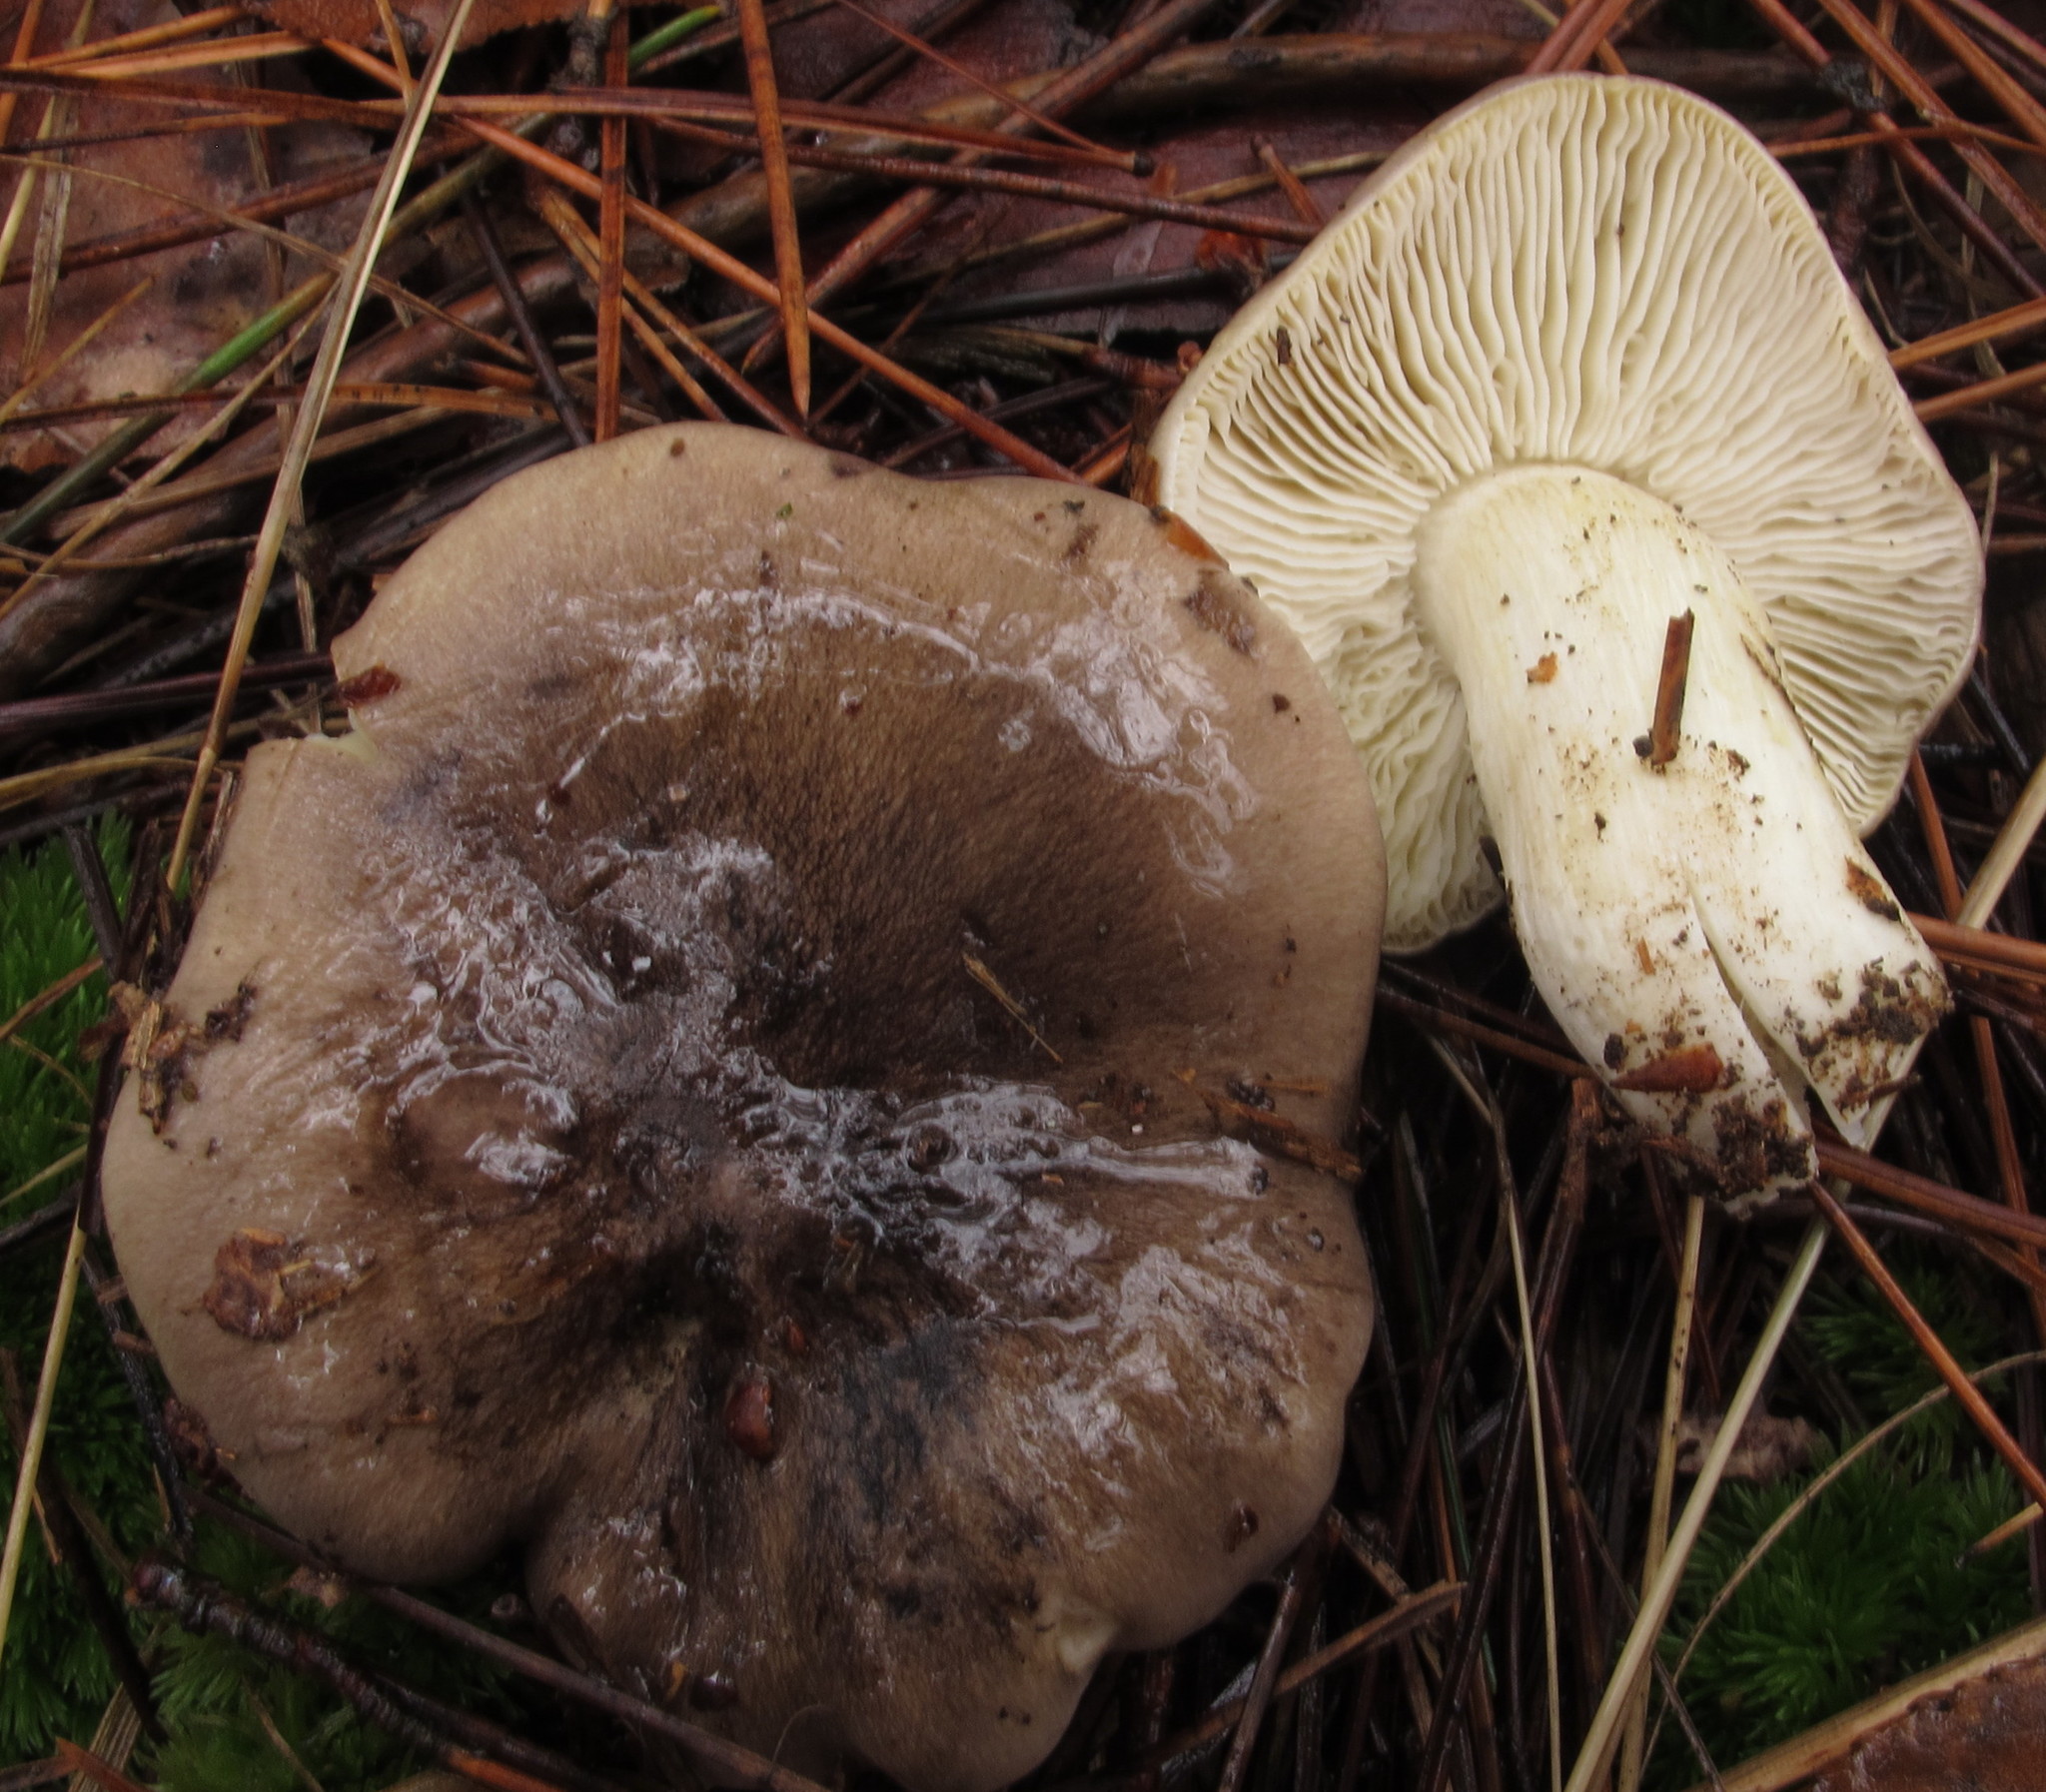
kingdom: Fungi
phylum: Basidiomycota
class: Agaricomycetes
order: Agaricales
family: Tricholomataceae
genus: Tricholoma
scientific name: Tricholoma portentosum
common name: Coalman
